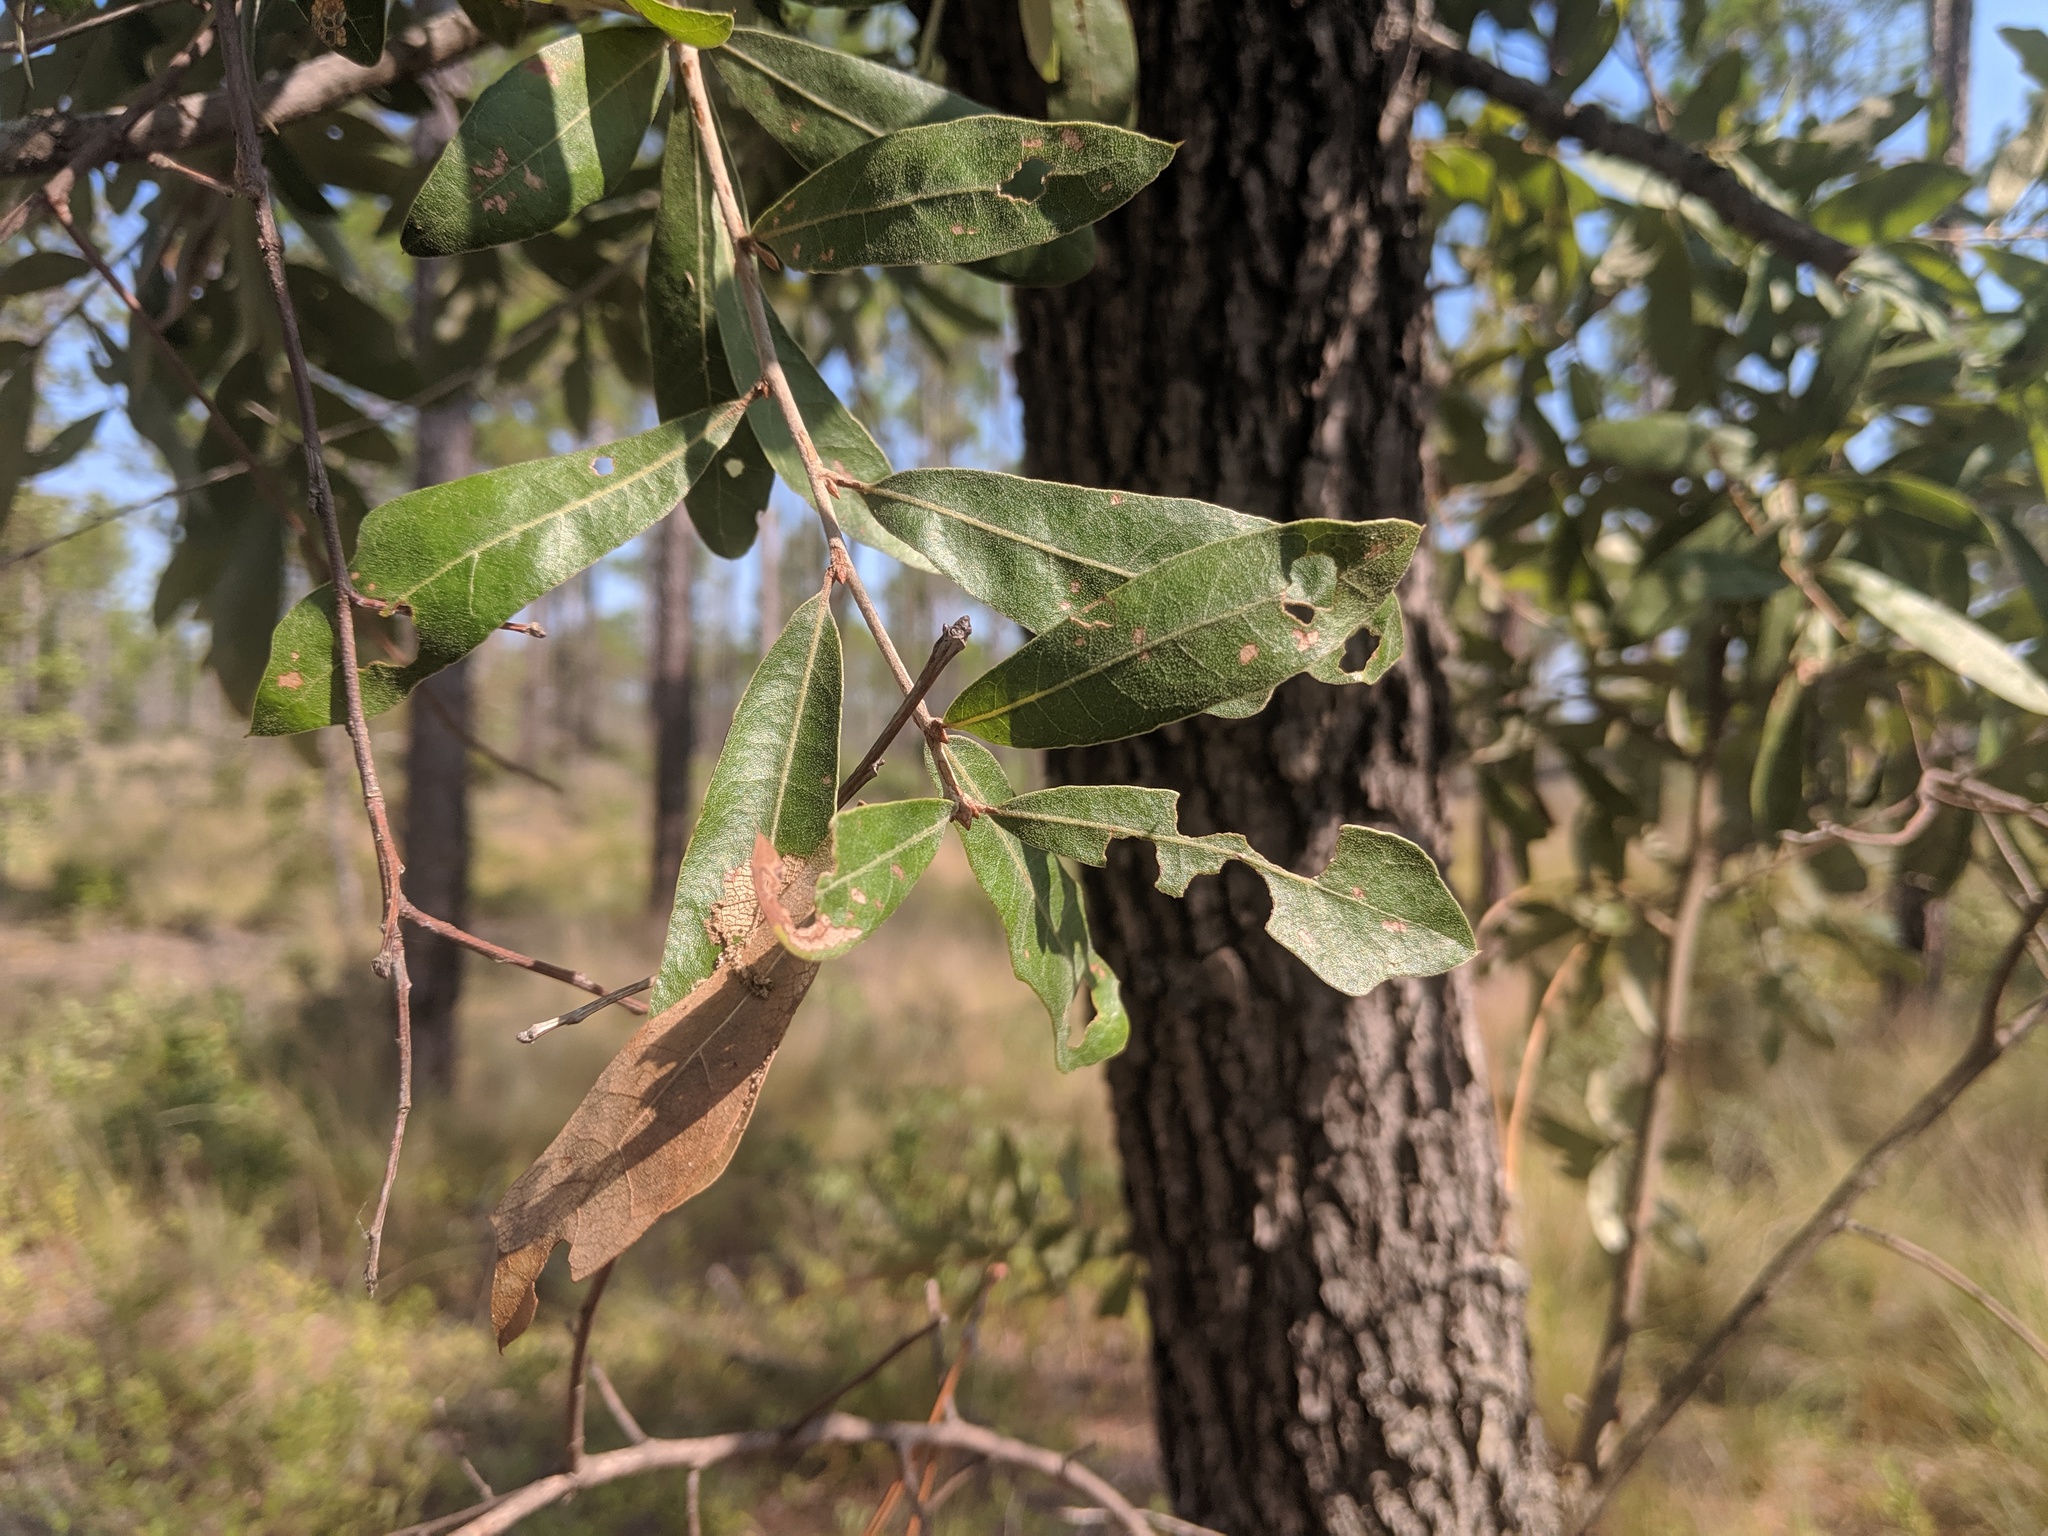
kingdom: Plantae
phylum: Tracheophyta
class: Magnoliopsida
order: Fagales
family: Fagaceae
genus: Quercus
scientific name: Quercus incana
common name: Bluejack oak
